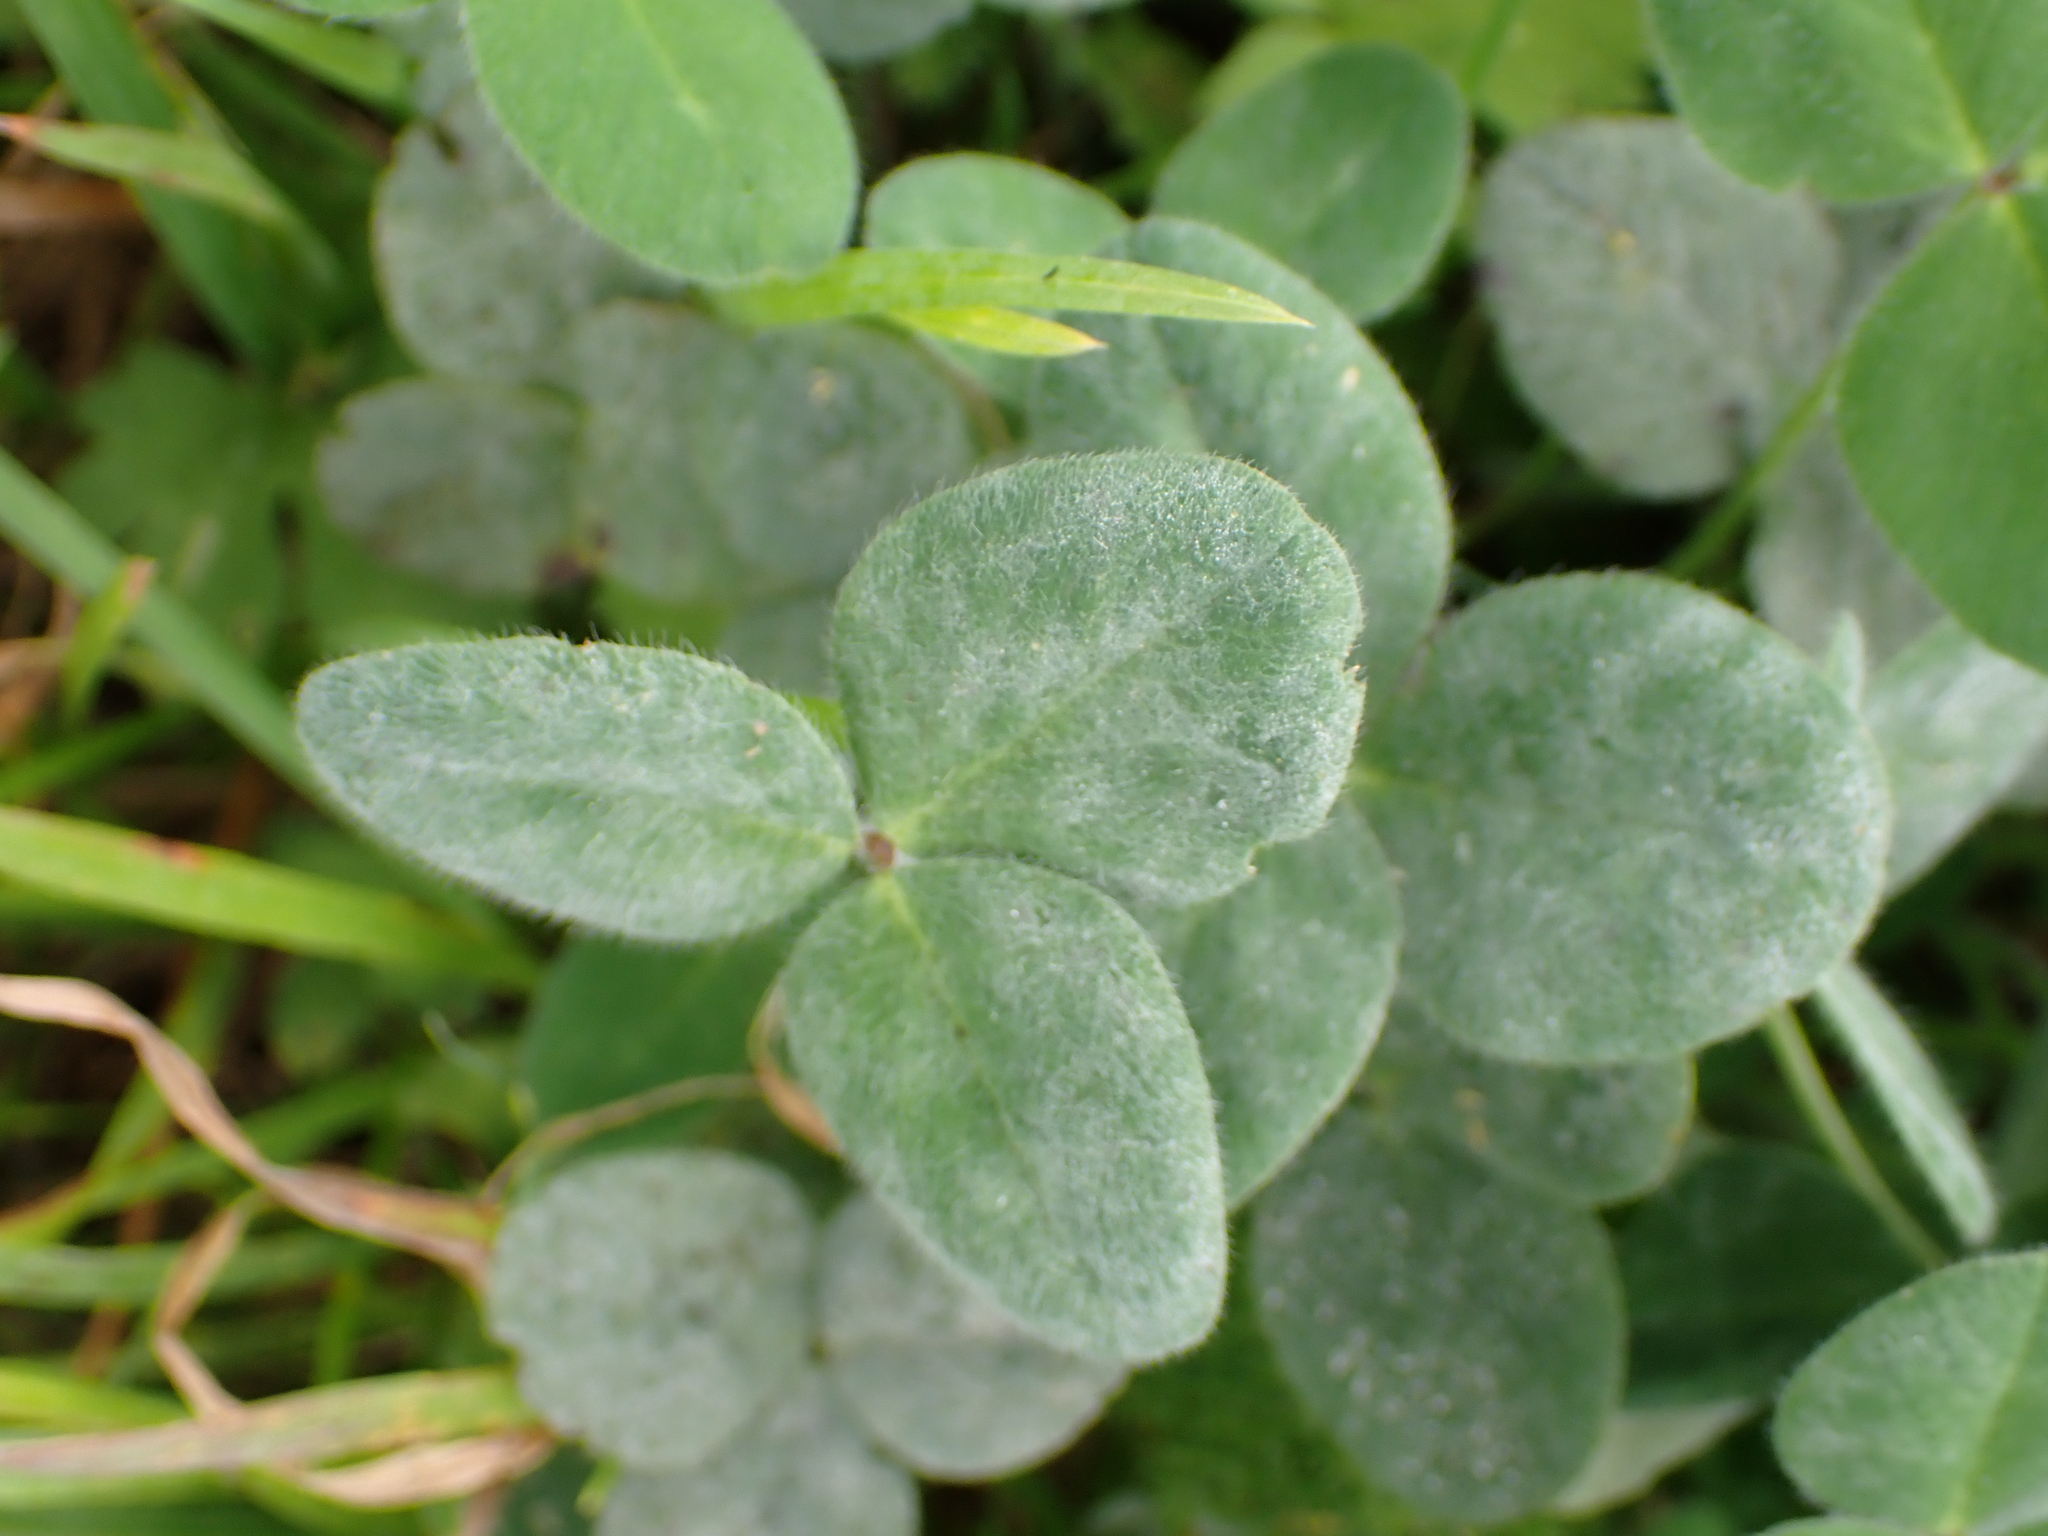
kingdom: Plantae
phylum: Tracheophyta
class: Magnoliopsida
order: Fabales
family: Fabaceae
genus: Trifolium
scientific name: Trifolium pratense
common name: Red clover
